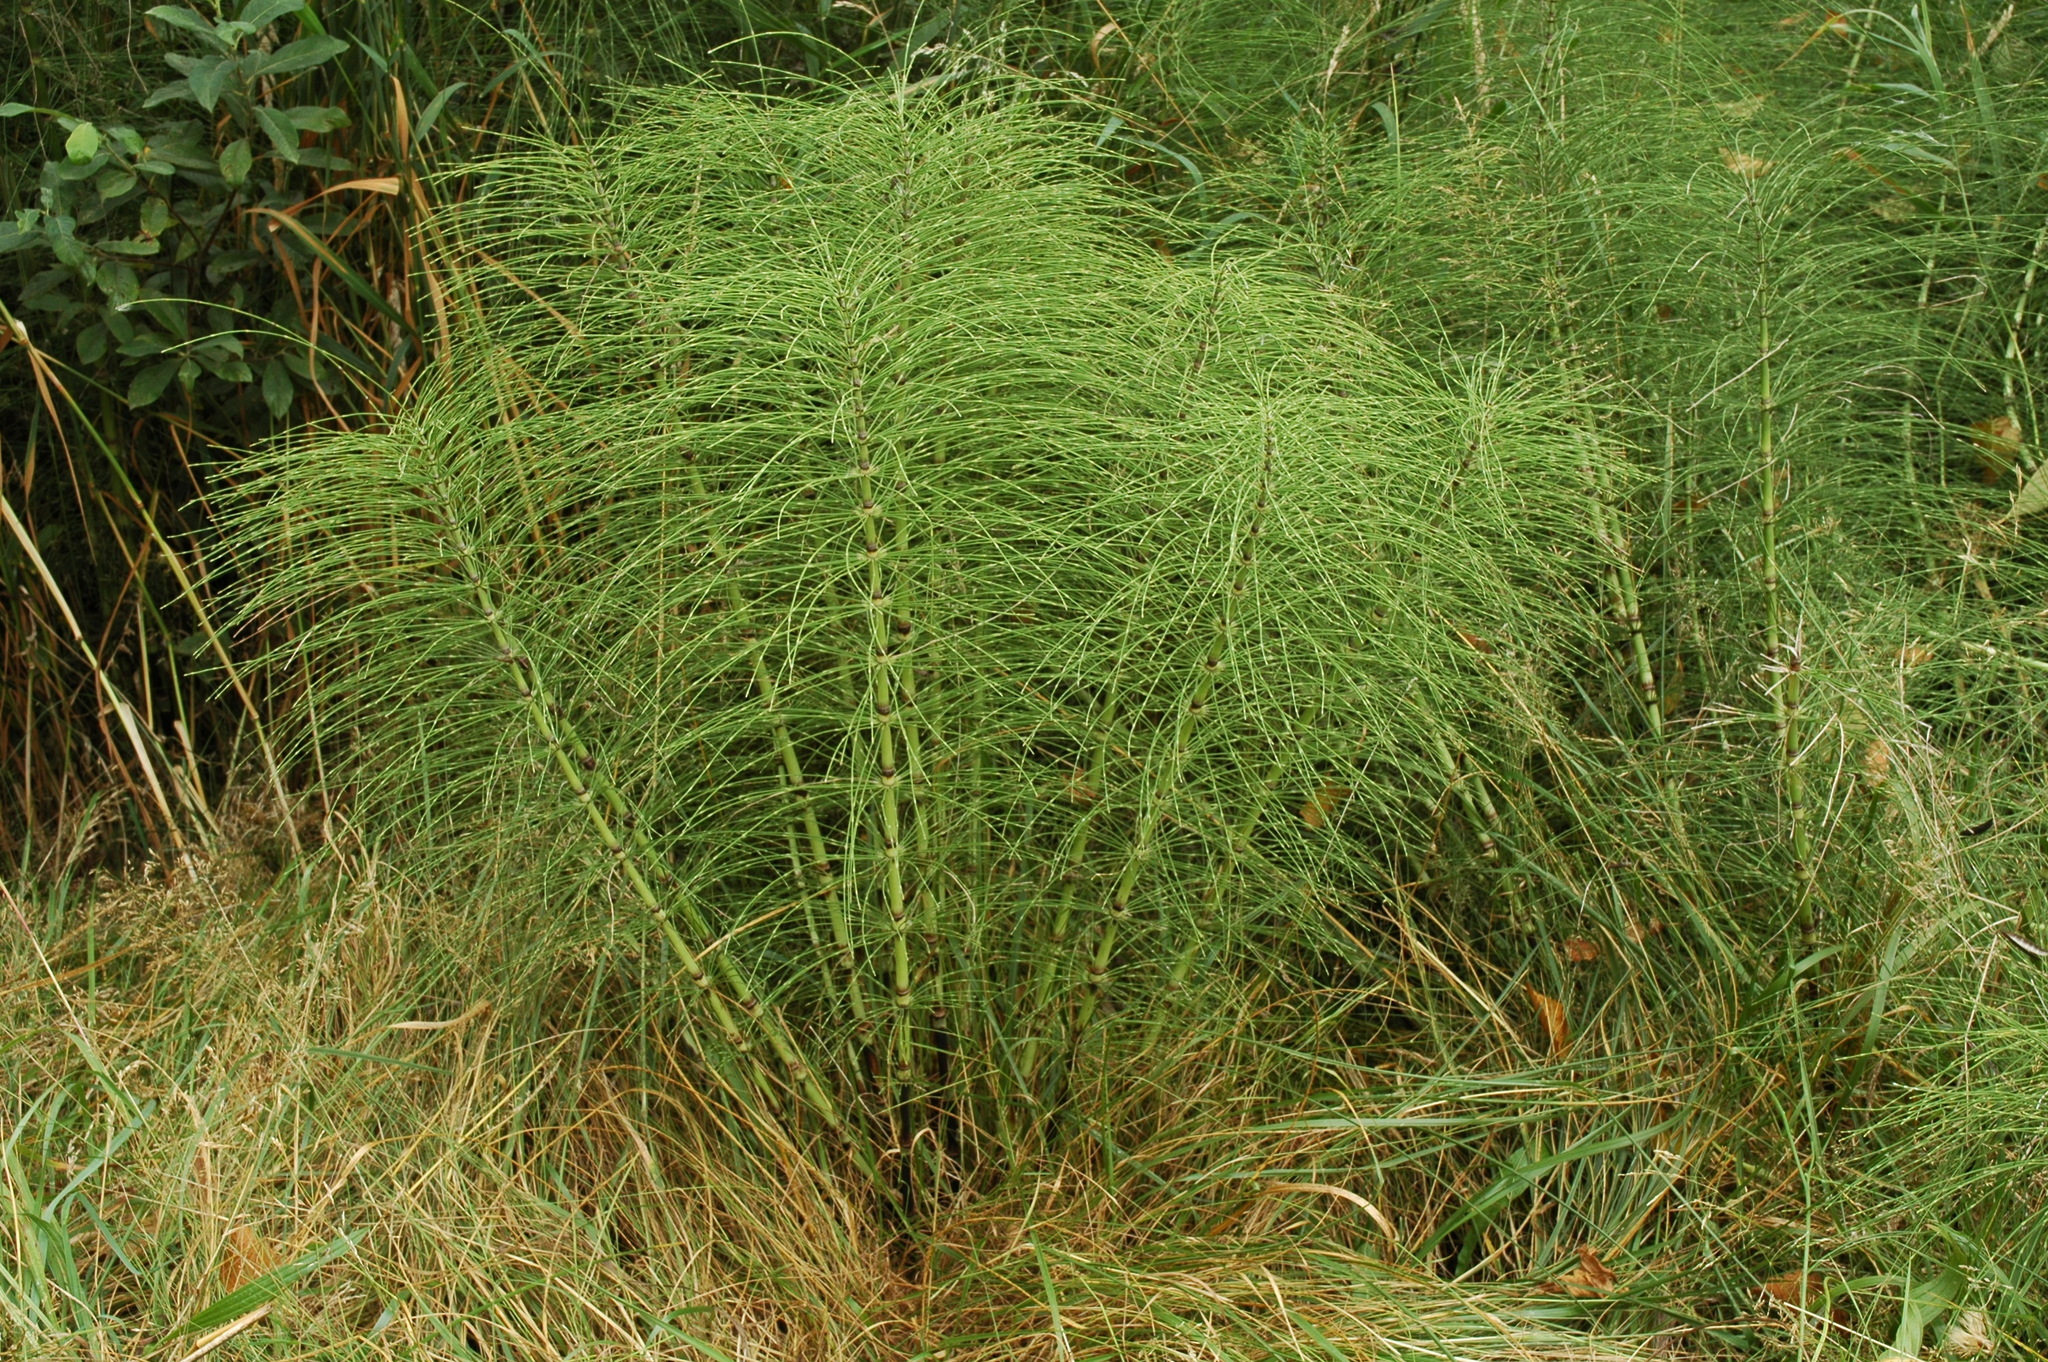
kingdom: Plantae
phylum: Tracheophyta
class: Polypodiopsida
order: Equisetales
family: Equisetaceae
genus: Equisetum
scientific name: Equisetum braunii
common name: Braun's horsetail
